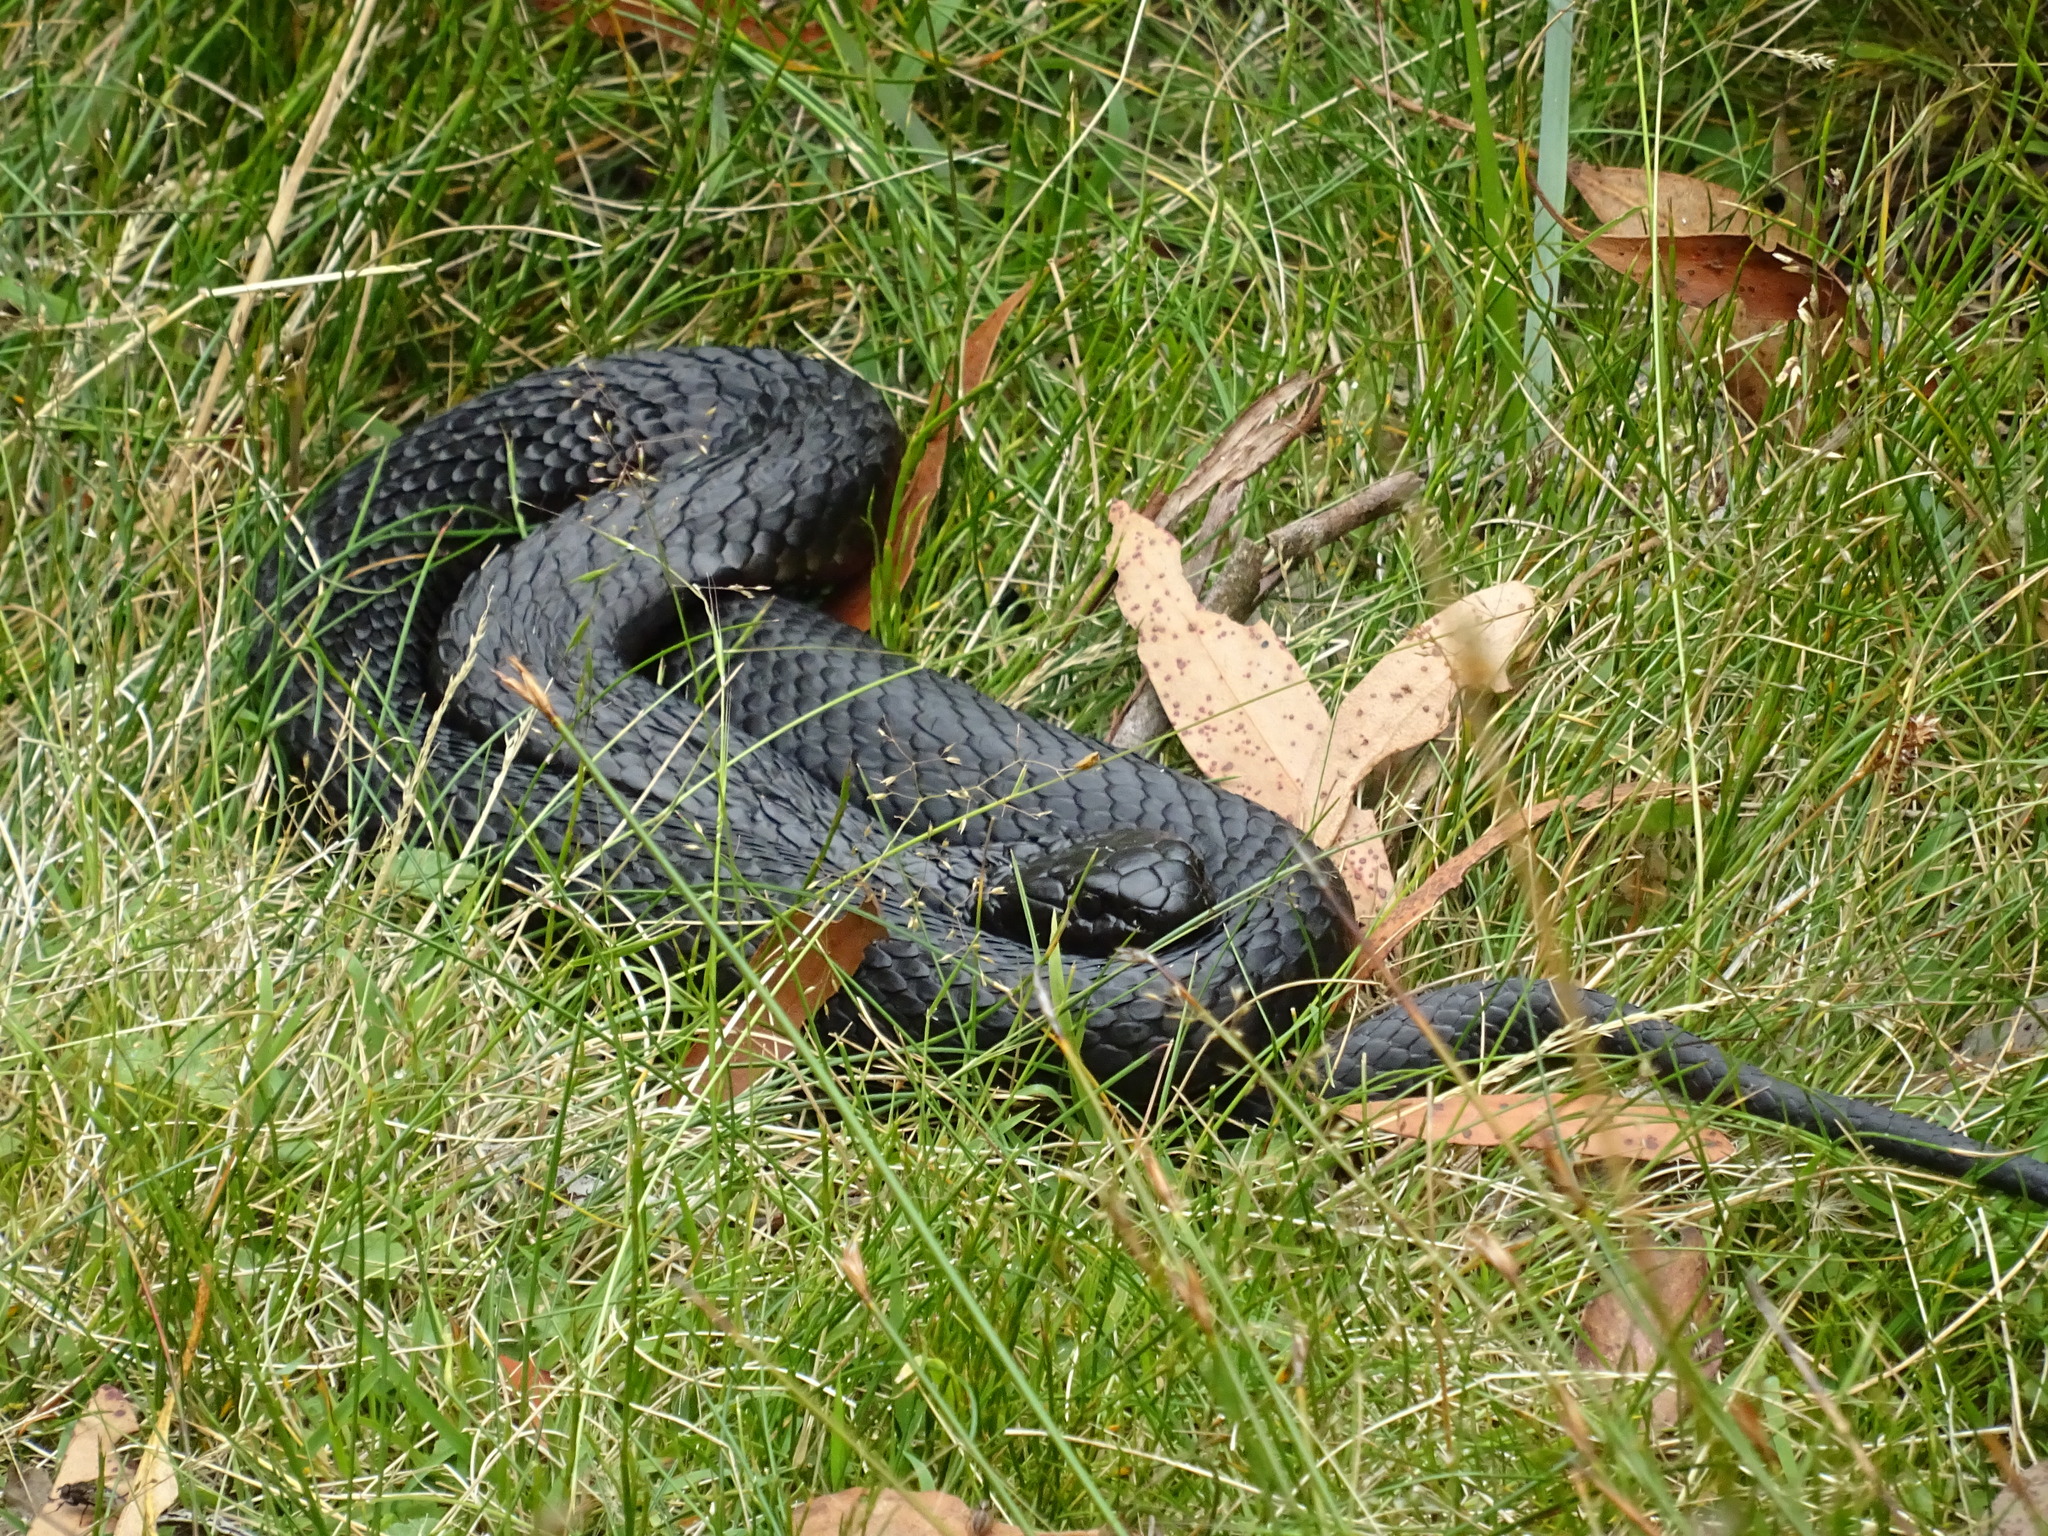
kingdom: Animalia
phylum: Chordata
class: Squamata
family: Elapidae
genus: Notechis
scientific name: Notechis scutatus
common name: Mainland tiger snake
